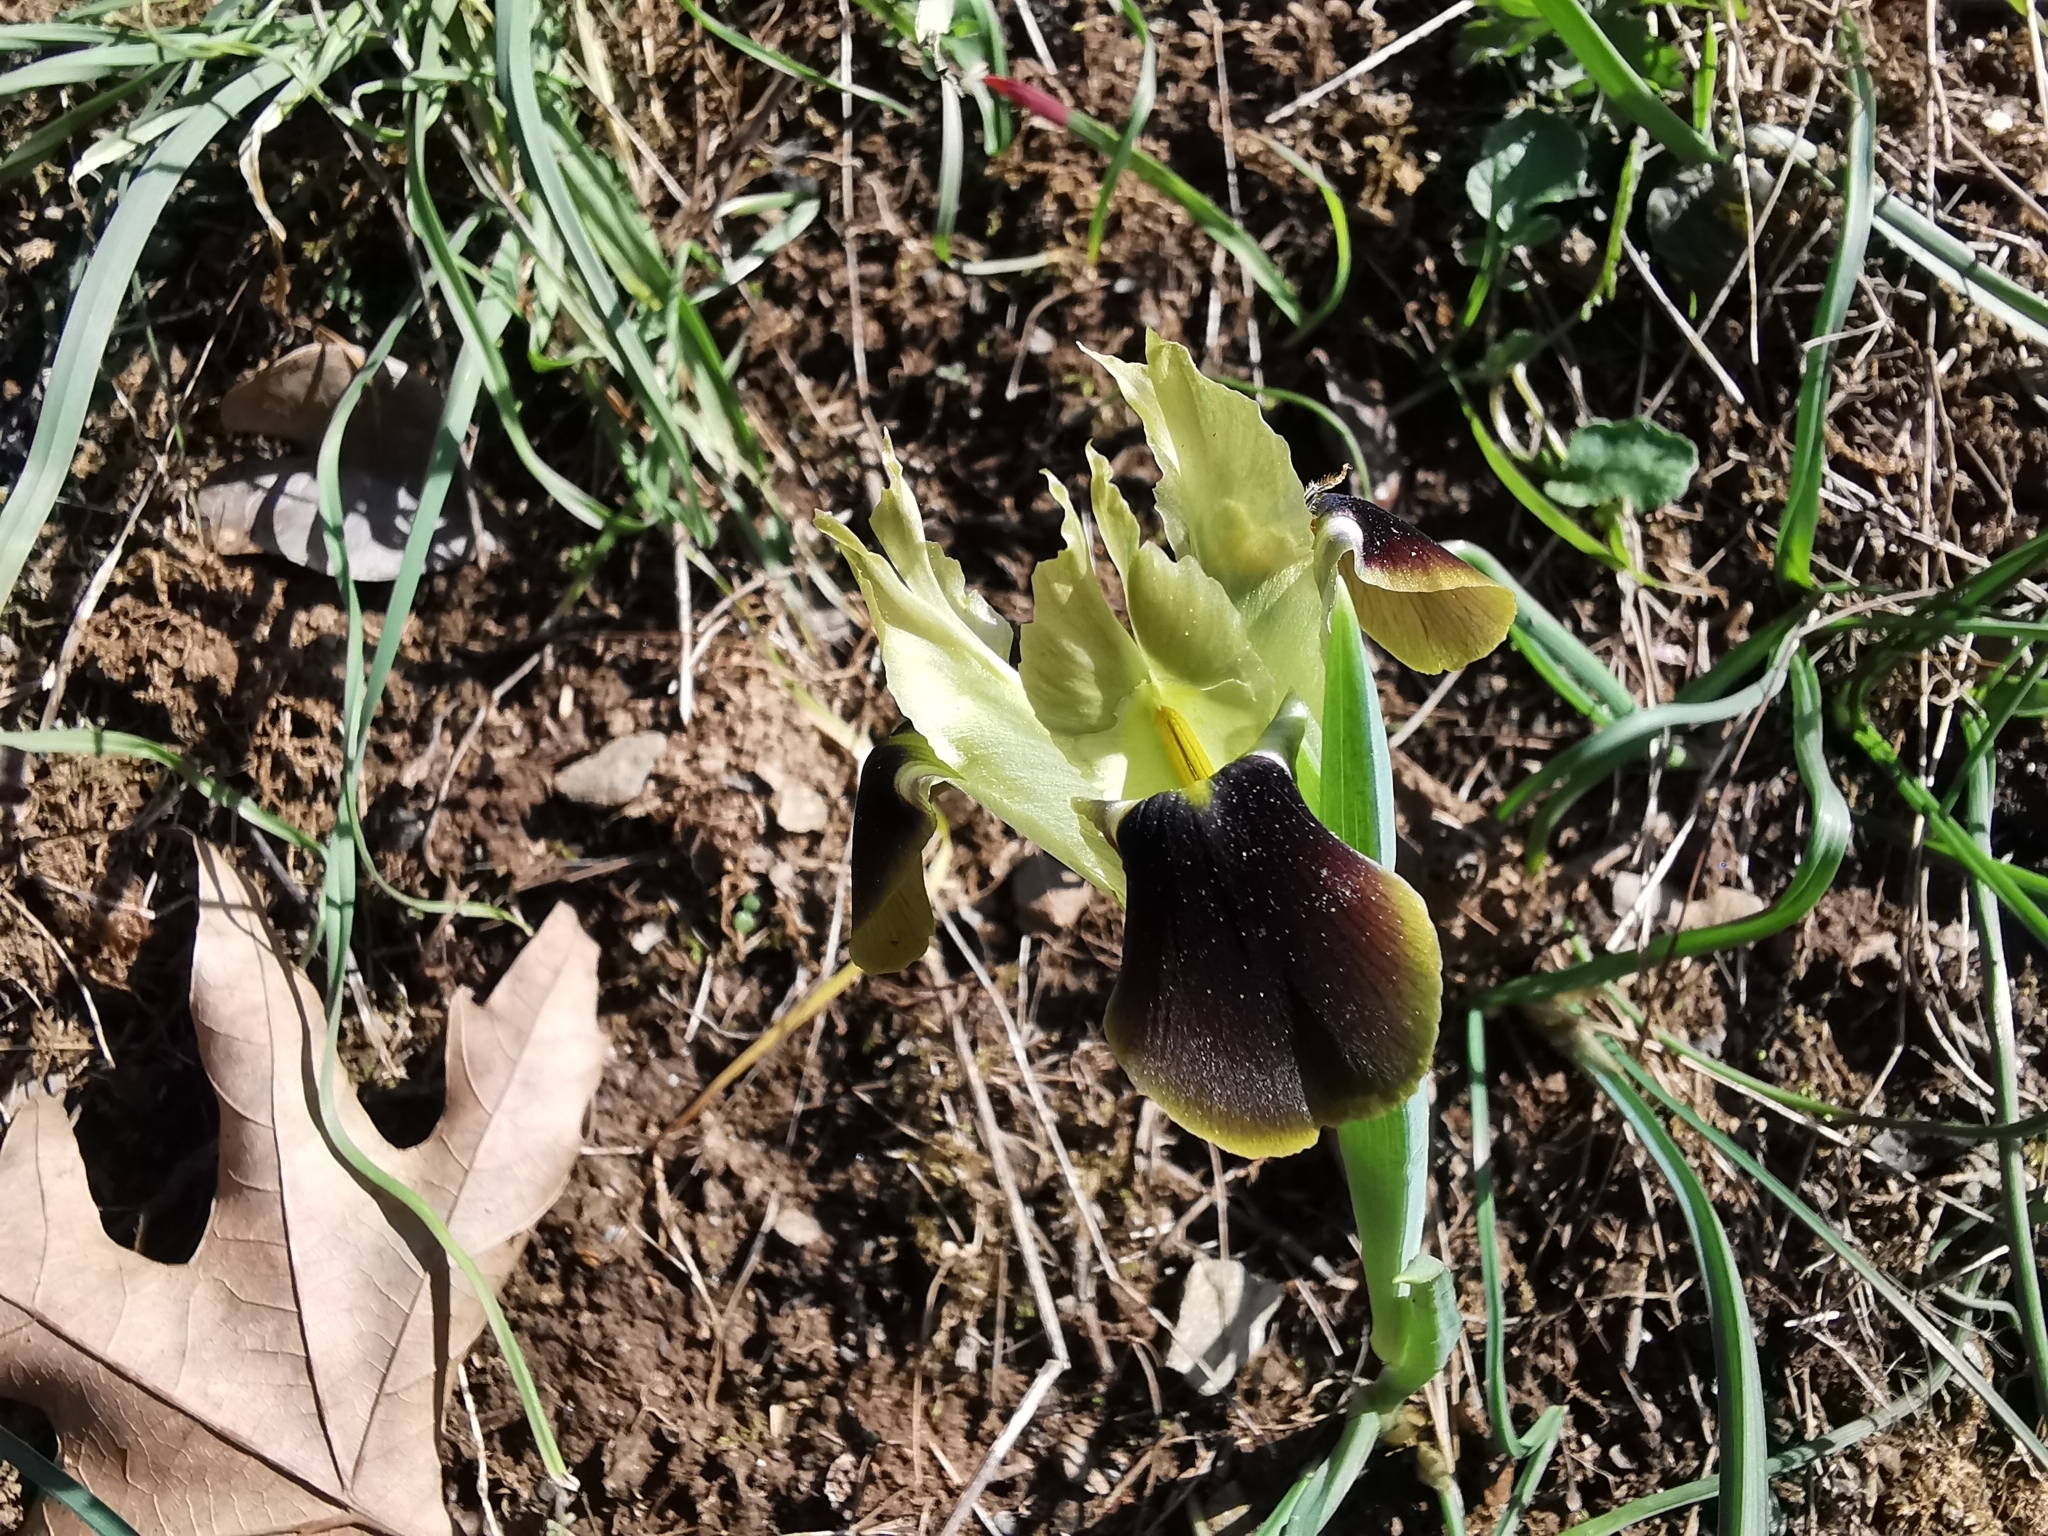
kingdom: Plantae
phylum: Tracheophyta
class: Liliopsida
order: Asparagales
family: Iridaceae
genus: Iris
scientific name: Iris tuberosa
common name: Snake's-head iris
